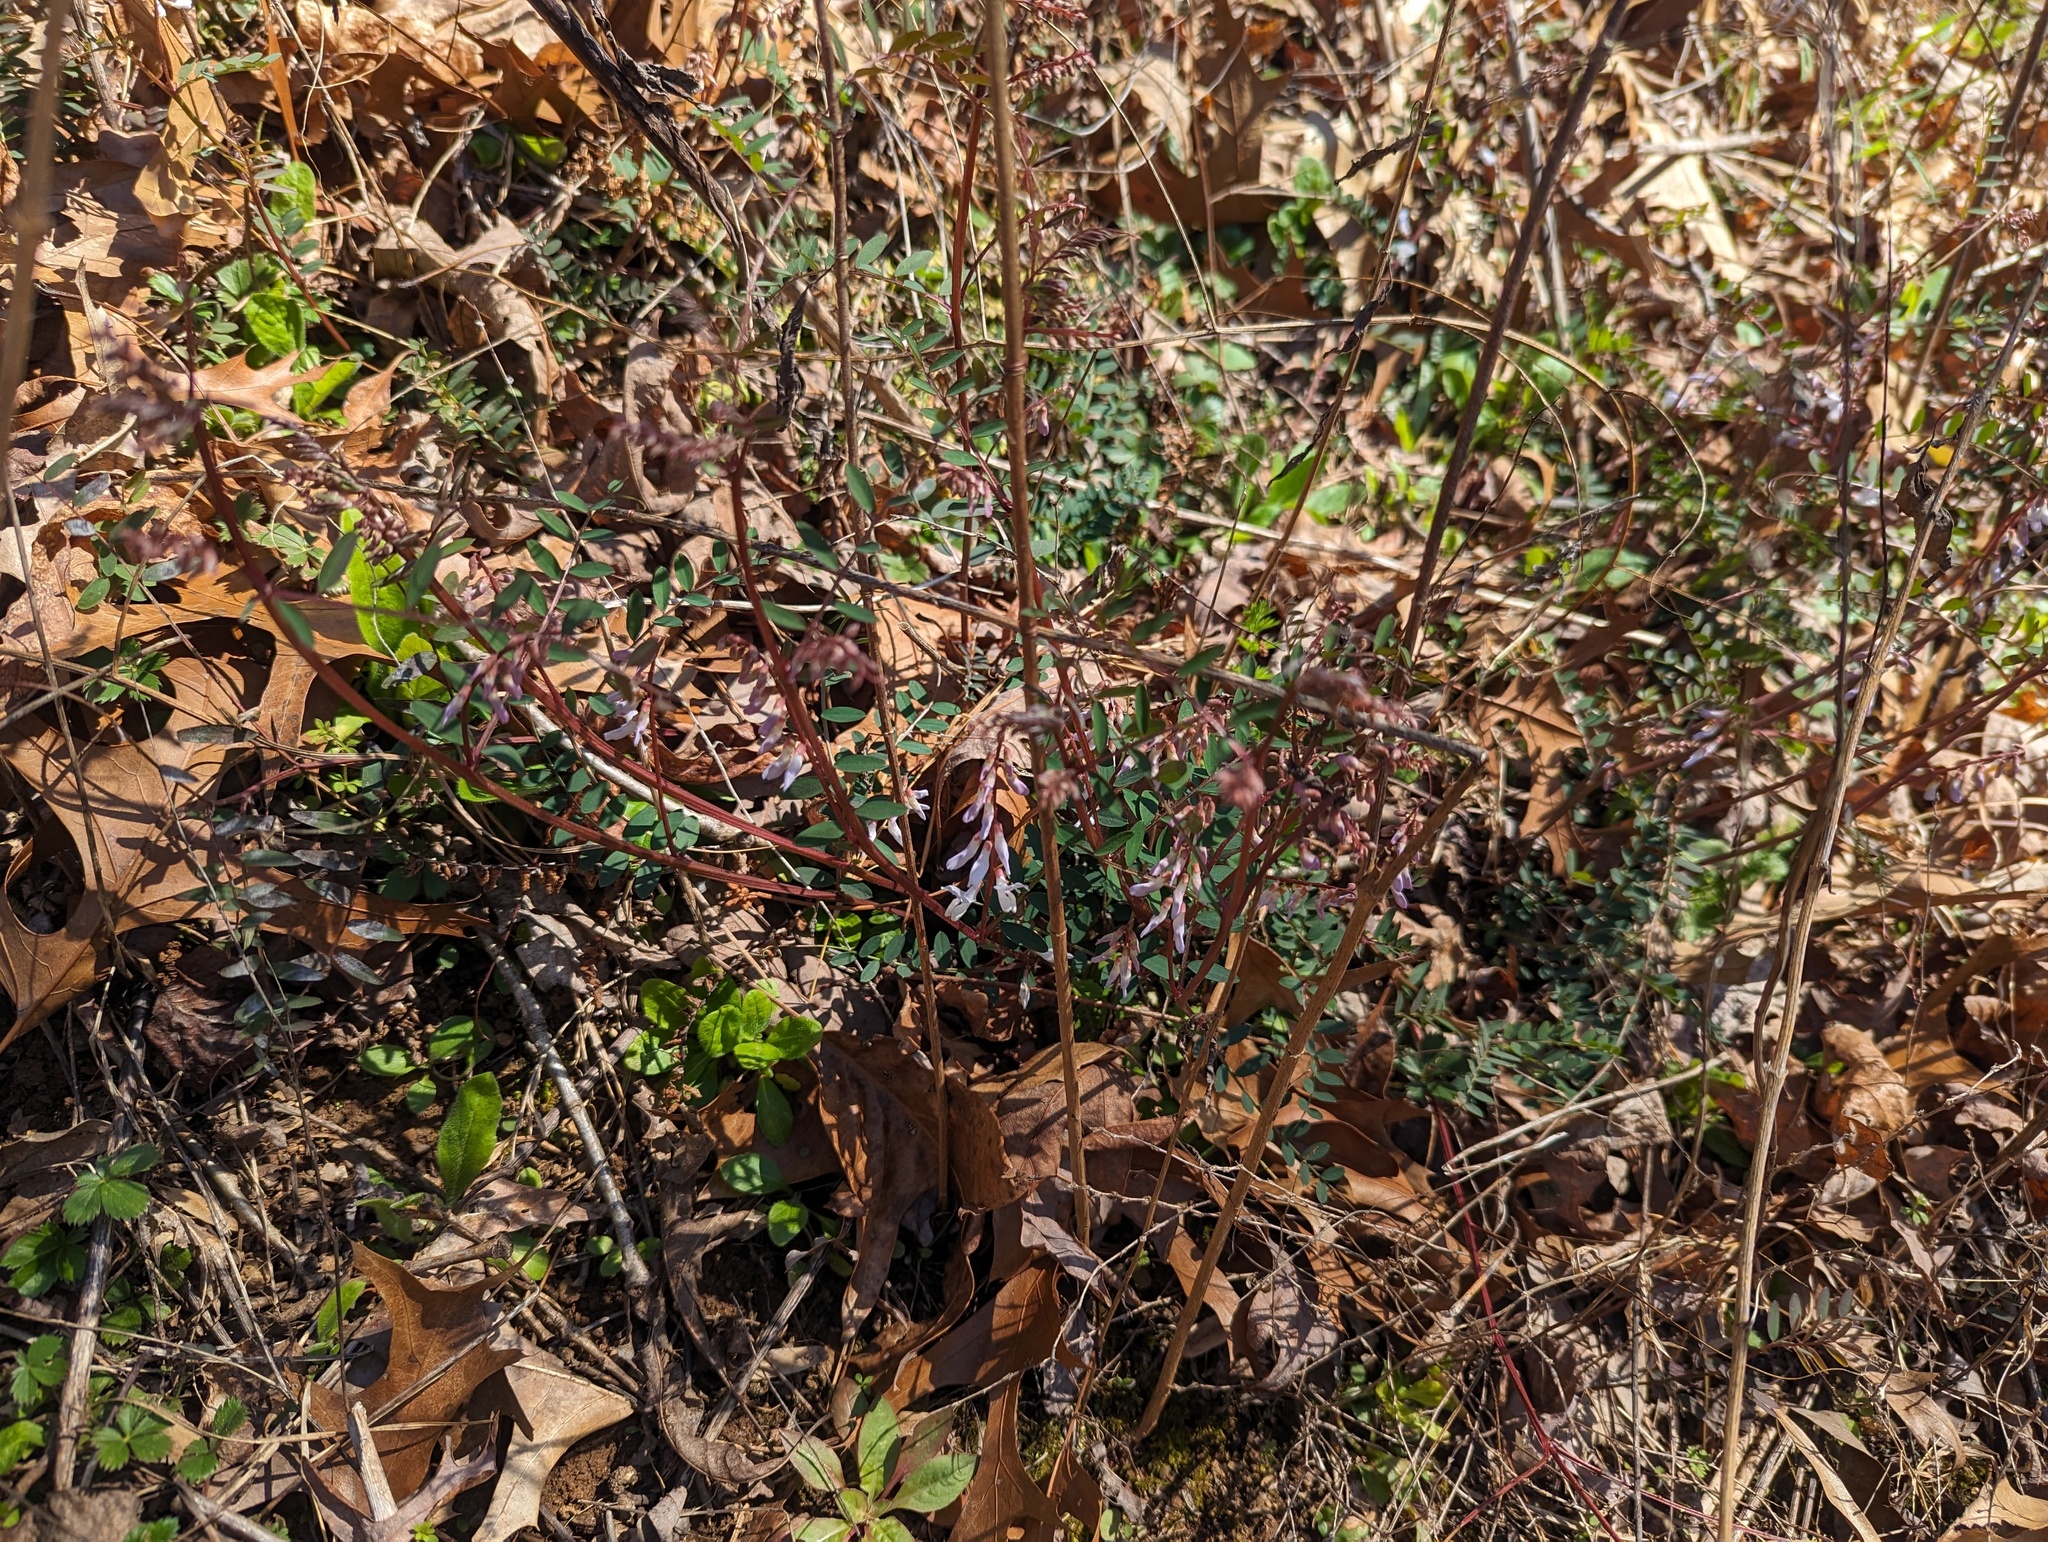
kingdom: Plantae
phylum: Tracheophyta
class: Magnoliopsida
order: Fabales
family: Fabaceae
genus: Vicia
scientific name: Vicia caroliniana
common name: Carolina vetch
